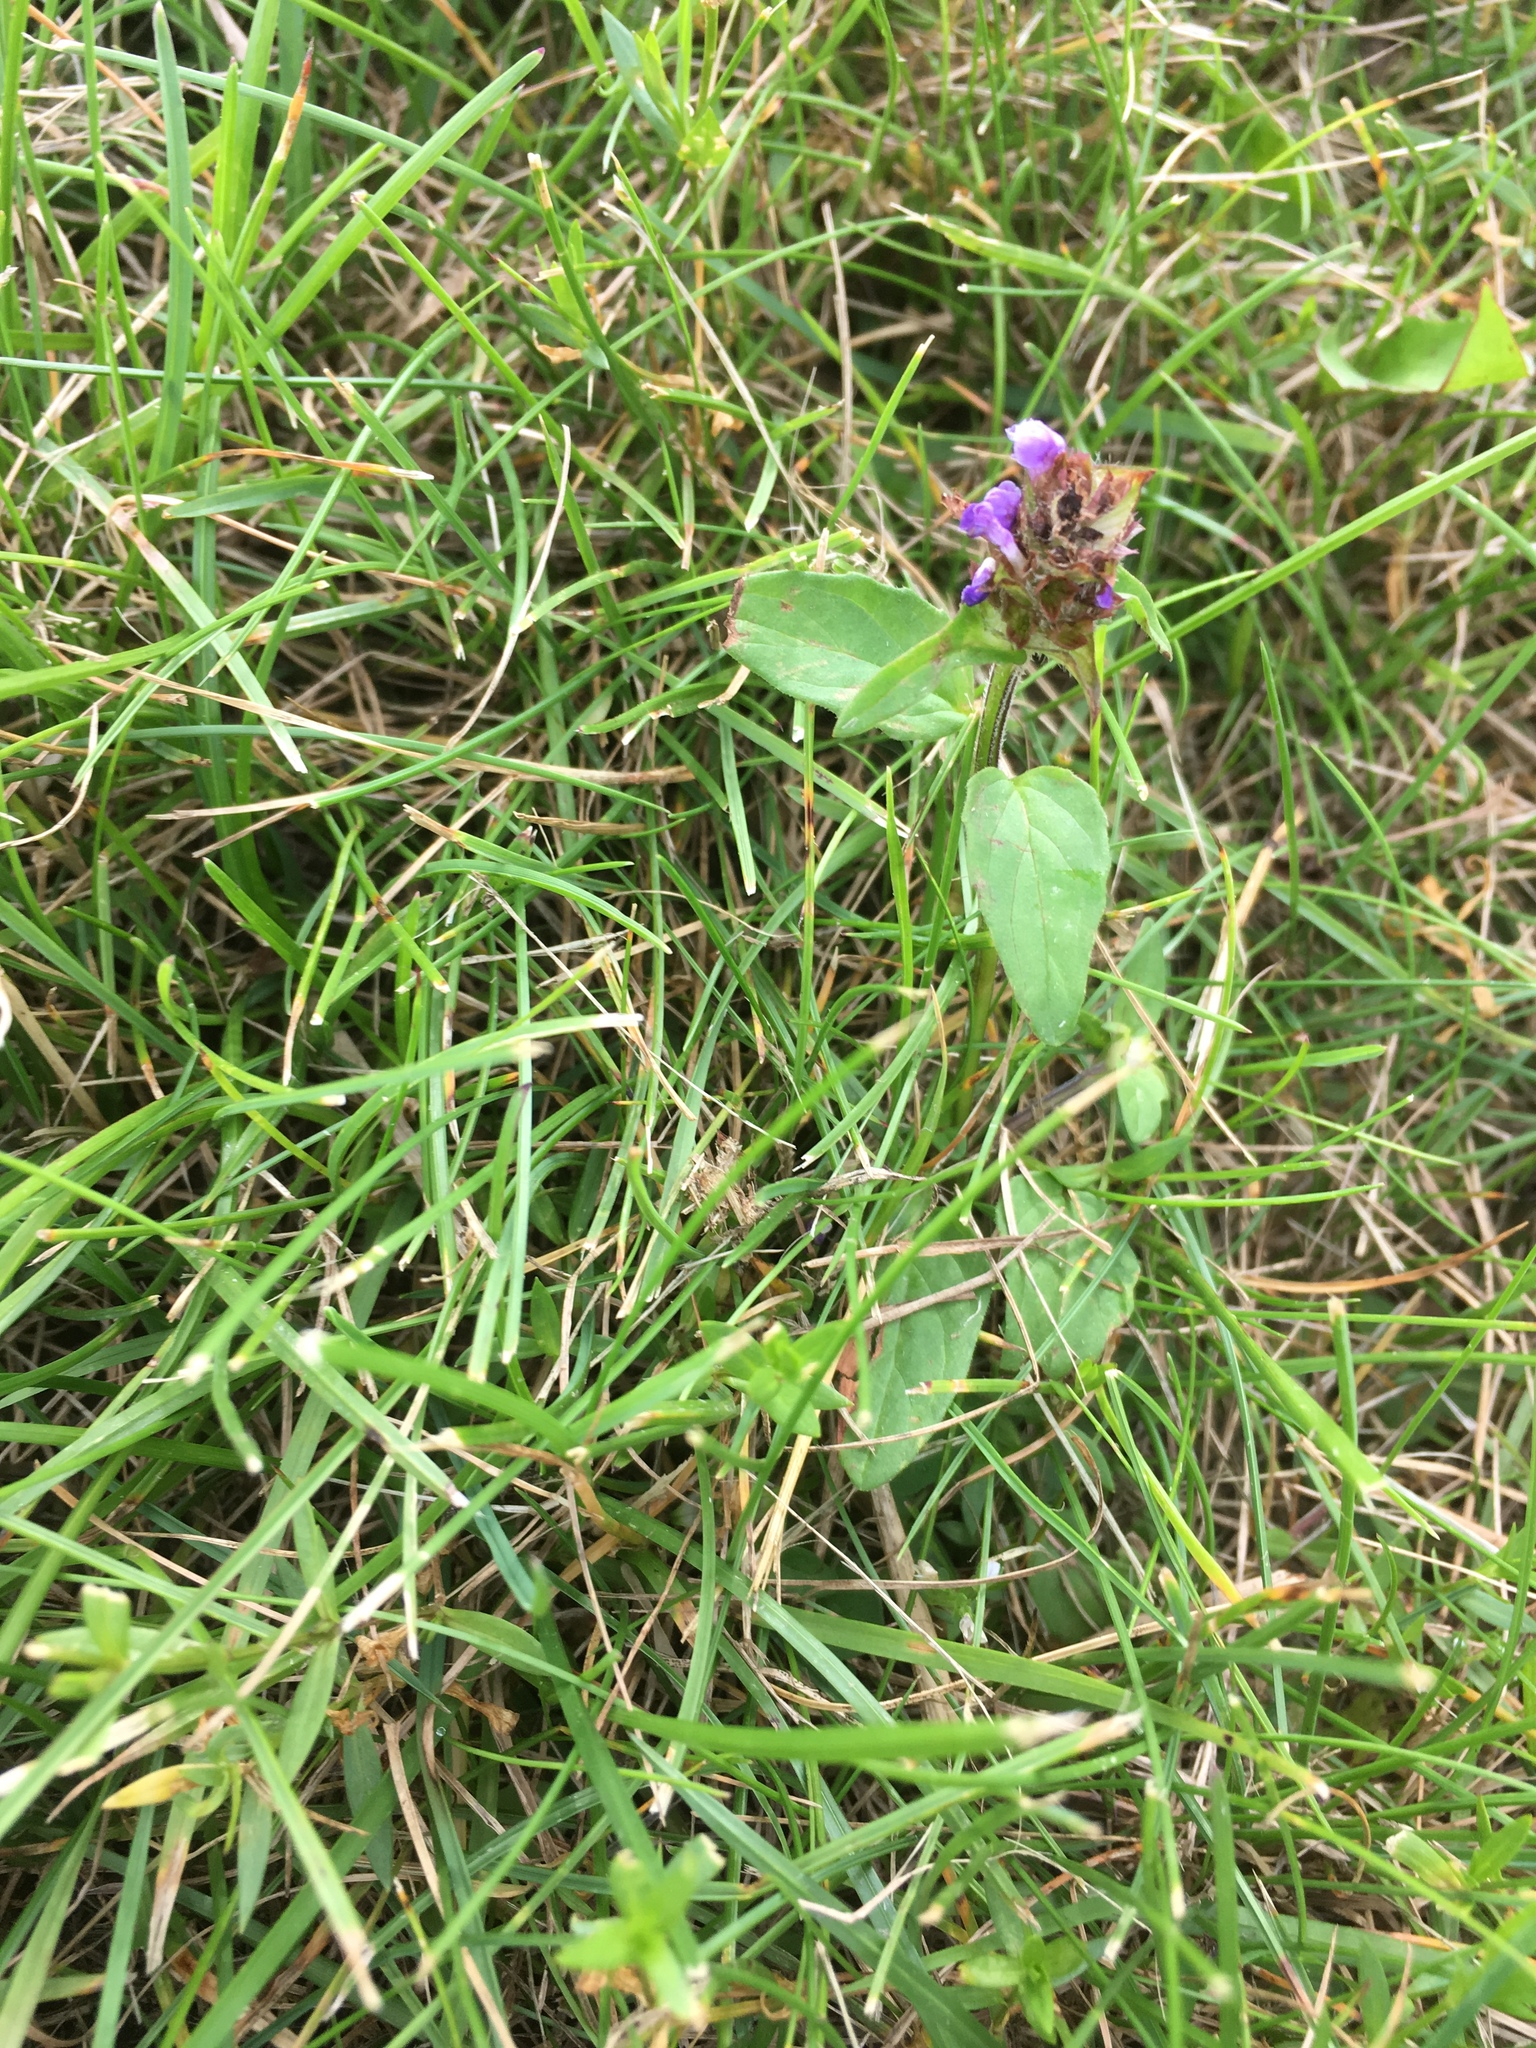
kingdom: Plantae
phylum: Tracheophyta
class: Magnoliopsida
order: Lamiales
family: Lamiaceae
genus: Prunella
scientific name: Prunella vulgaris
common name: Heal-all
